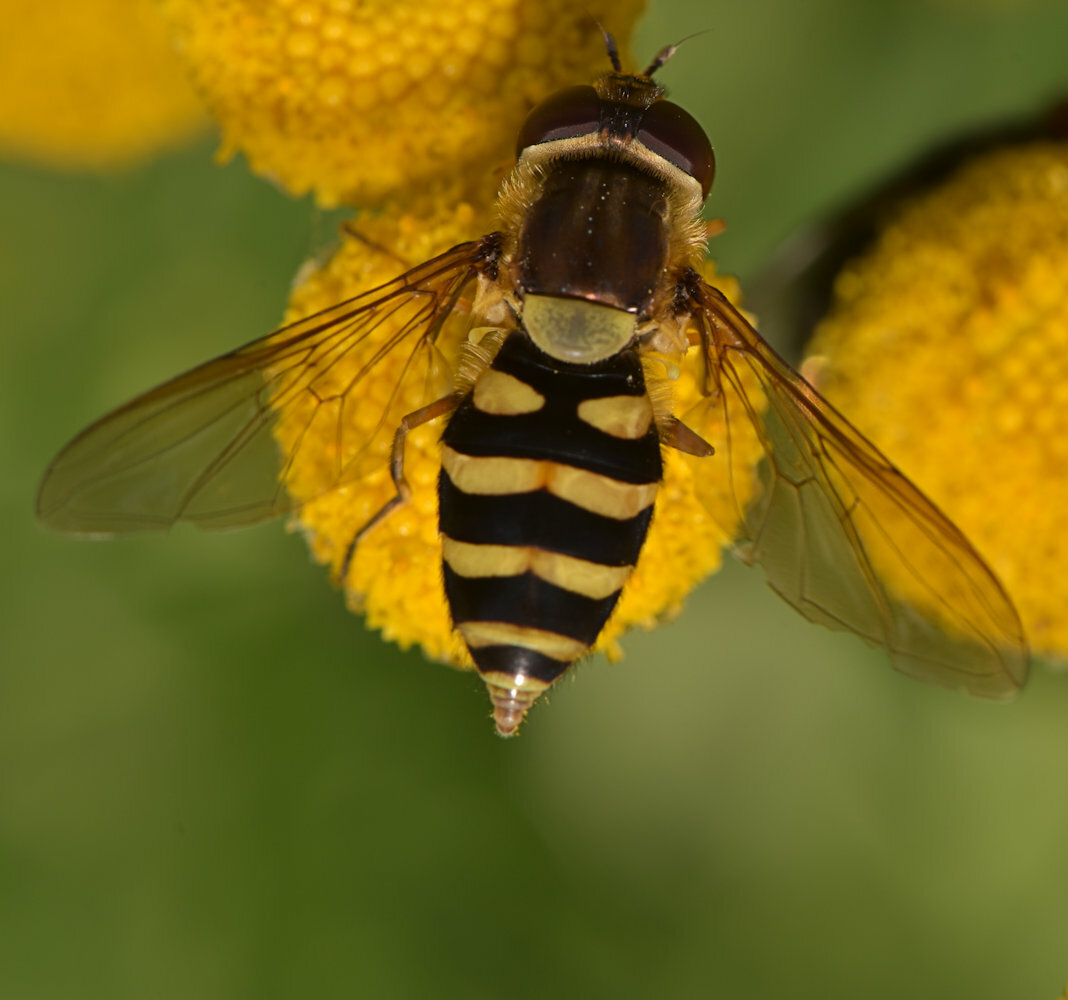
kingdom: Animalia
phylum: Arthropoda
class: Insecta
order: Diptera
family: Syrphidae
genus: Syrphus
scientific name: Syrphus
